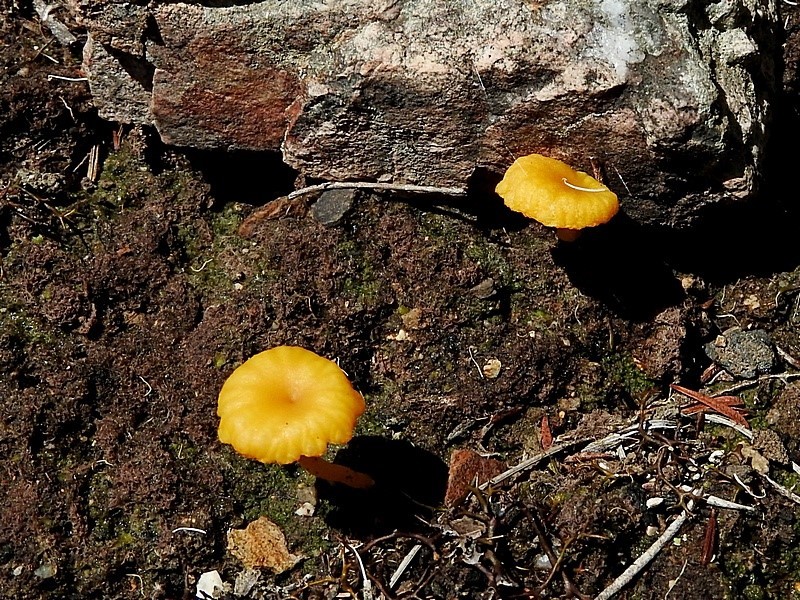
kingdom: Fungi
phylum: Basidiomycota
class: Agaricomycetes
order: Agaricales
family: Hygrophoraceae
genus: Lichenomphalia
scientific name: Lichenomphalia chromacea
